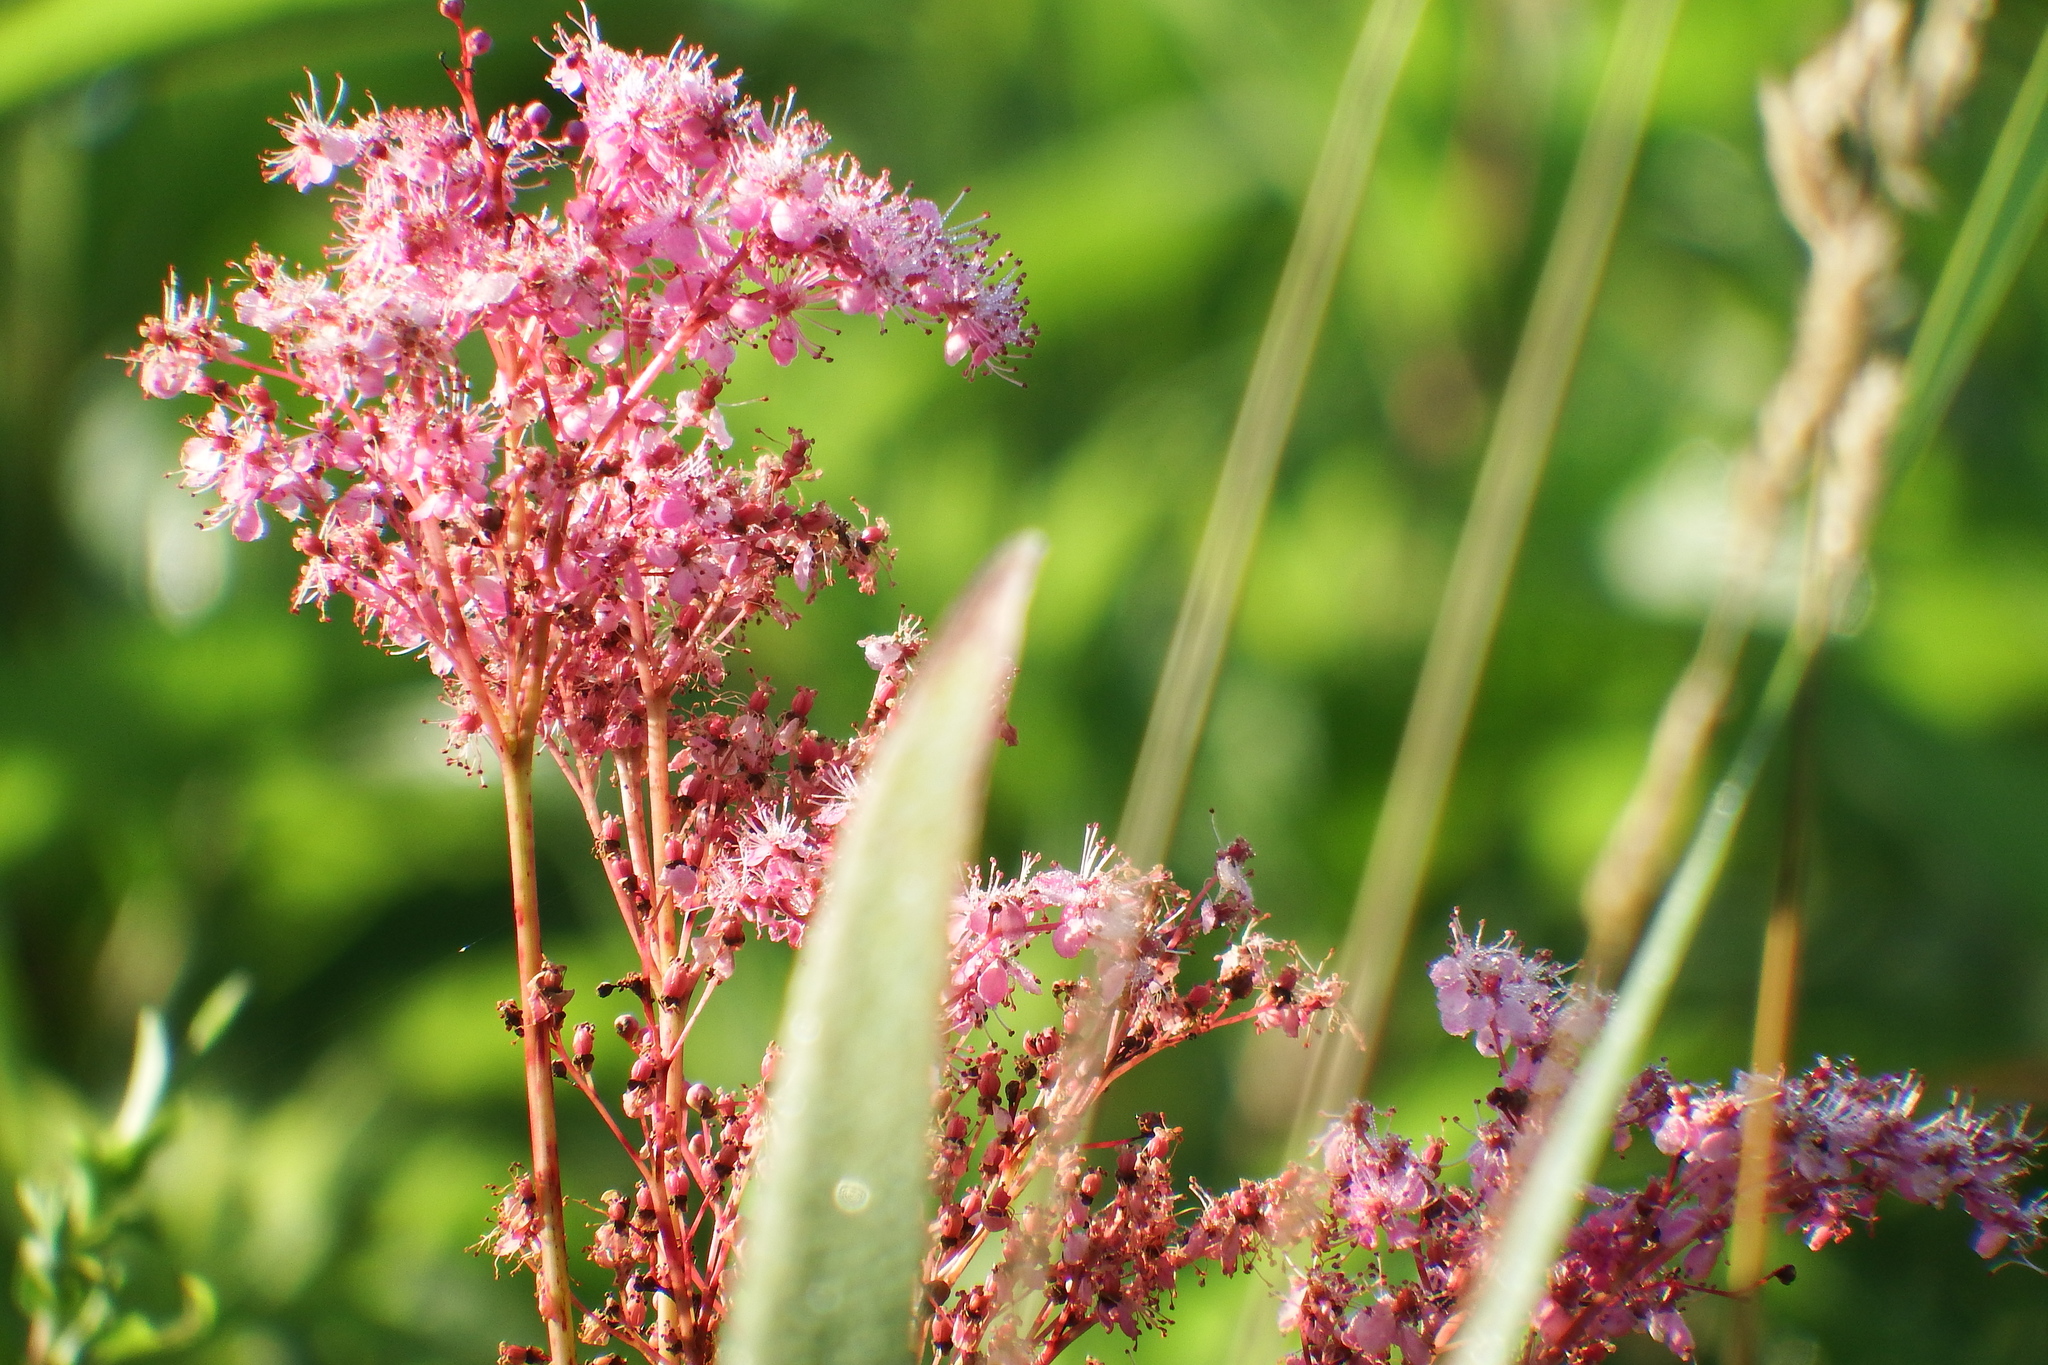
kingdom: Plantae
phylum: Tracheophyta
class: Magnoliopsida
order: Rosales
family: Rosaceae
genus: Filipendula
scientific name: Filipendula rubra
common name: Queen-of-the-prairie
